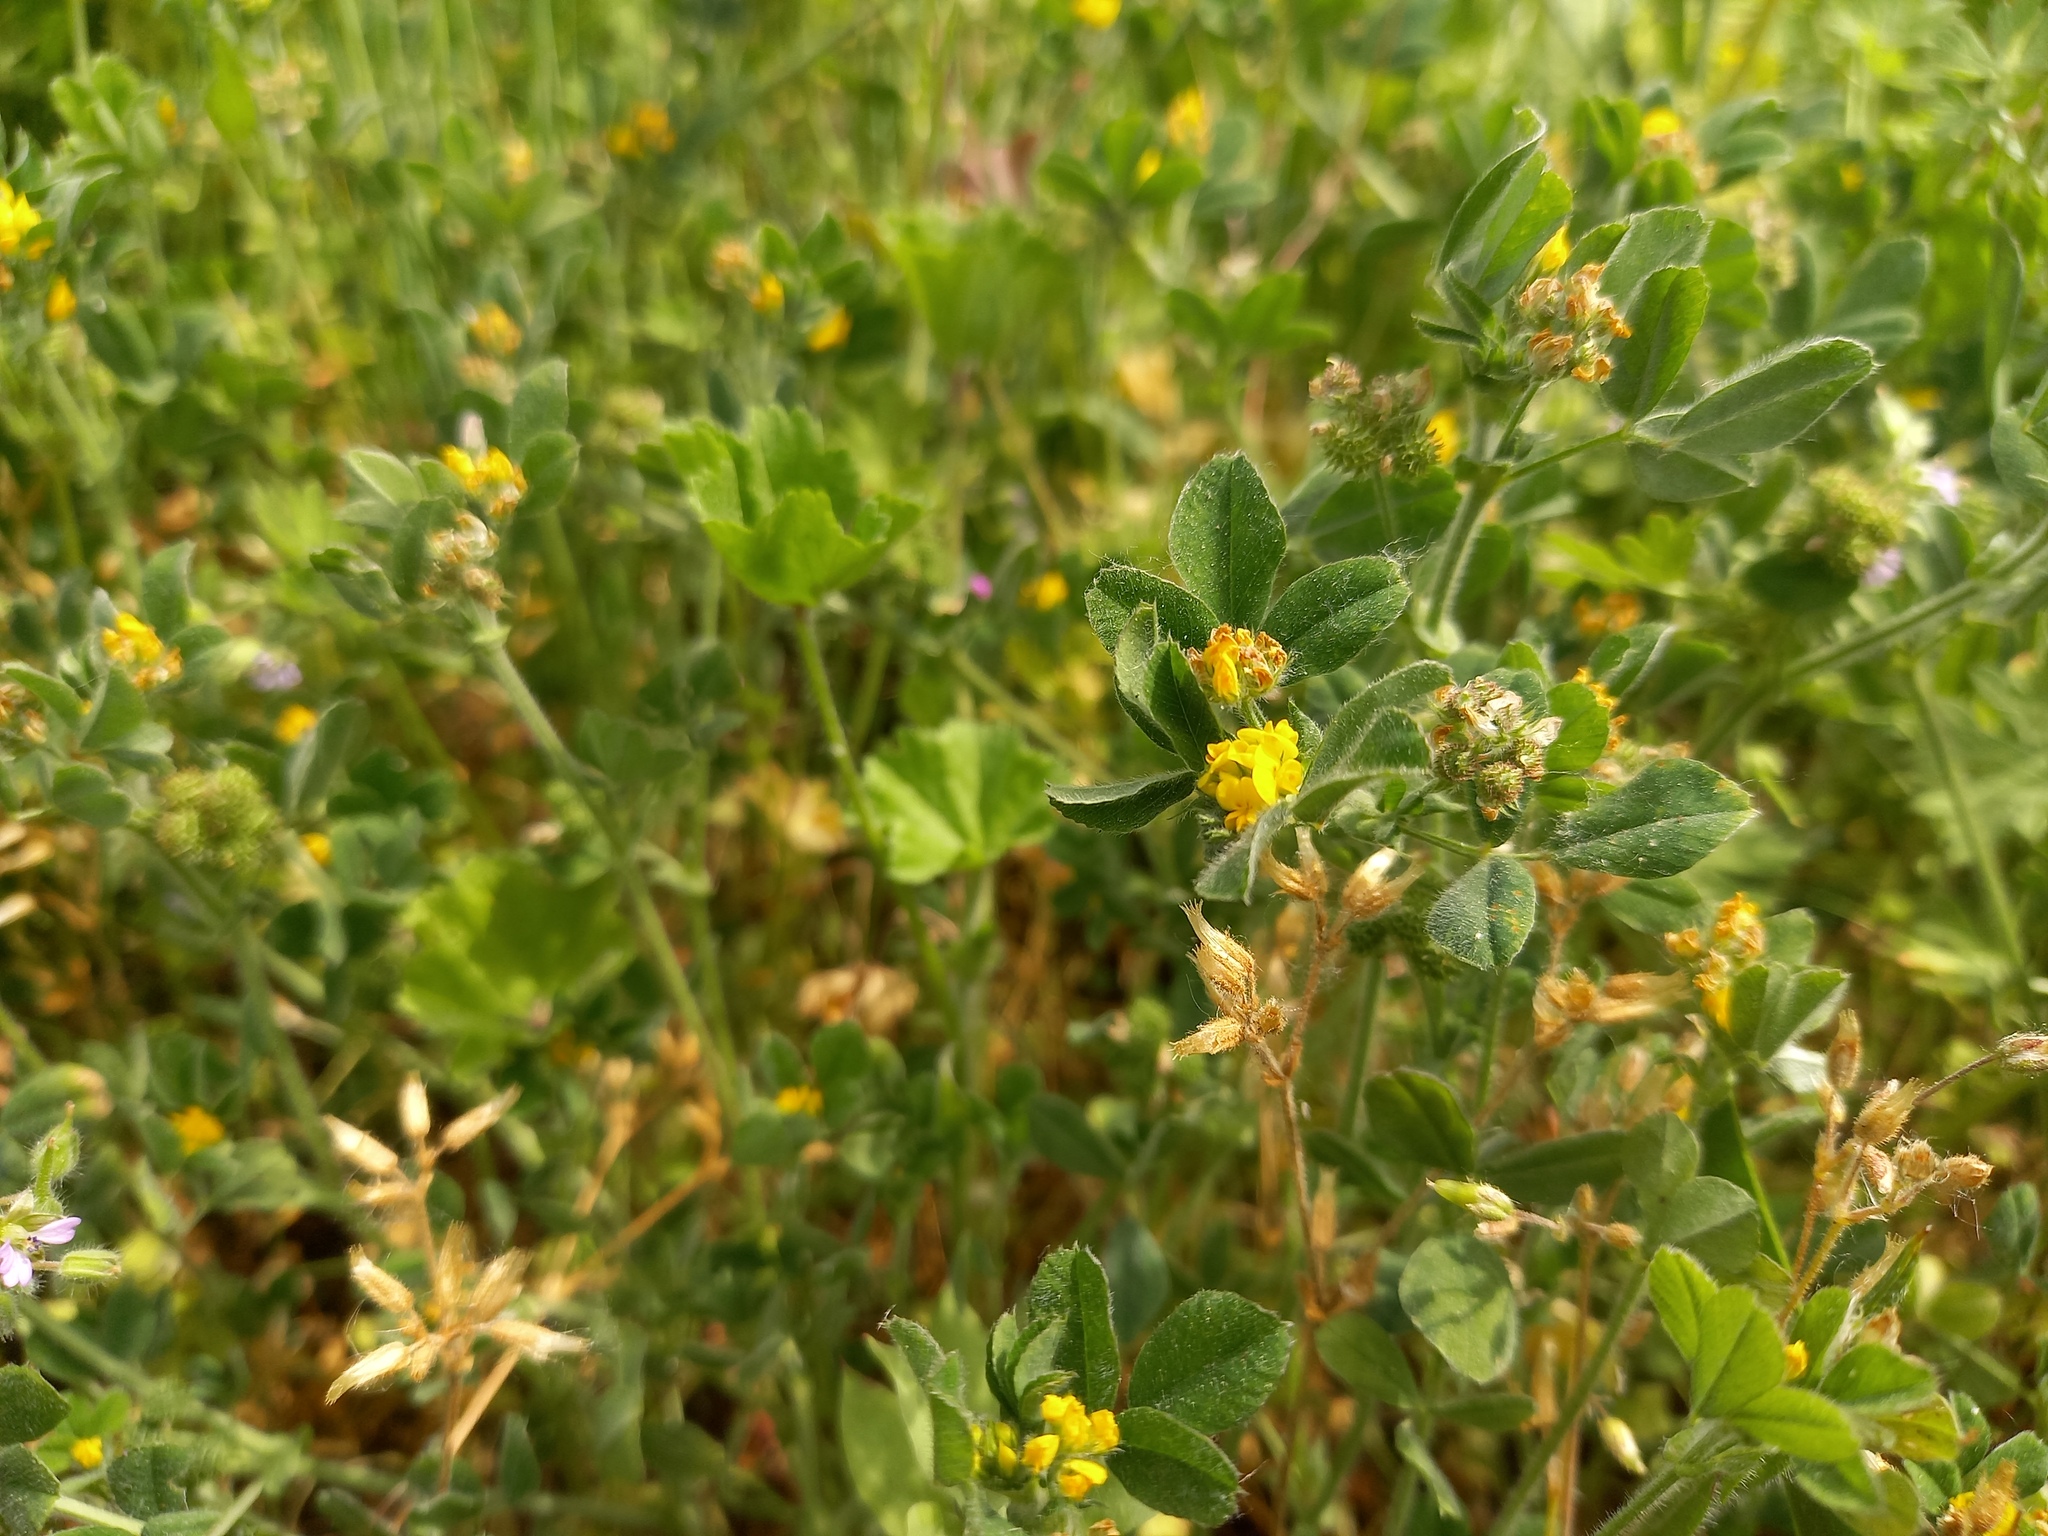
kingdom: Plantae
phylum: Tracheophyta
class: Magnoliopsida
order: Fabales
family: Fabaceae
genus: Medicago
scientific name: Medicago minima
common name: Little bur-clover
